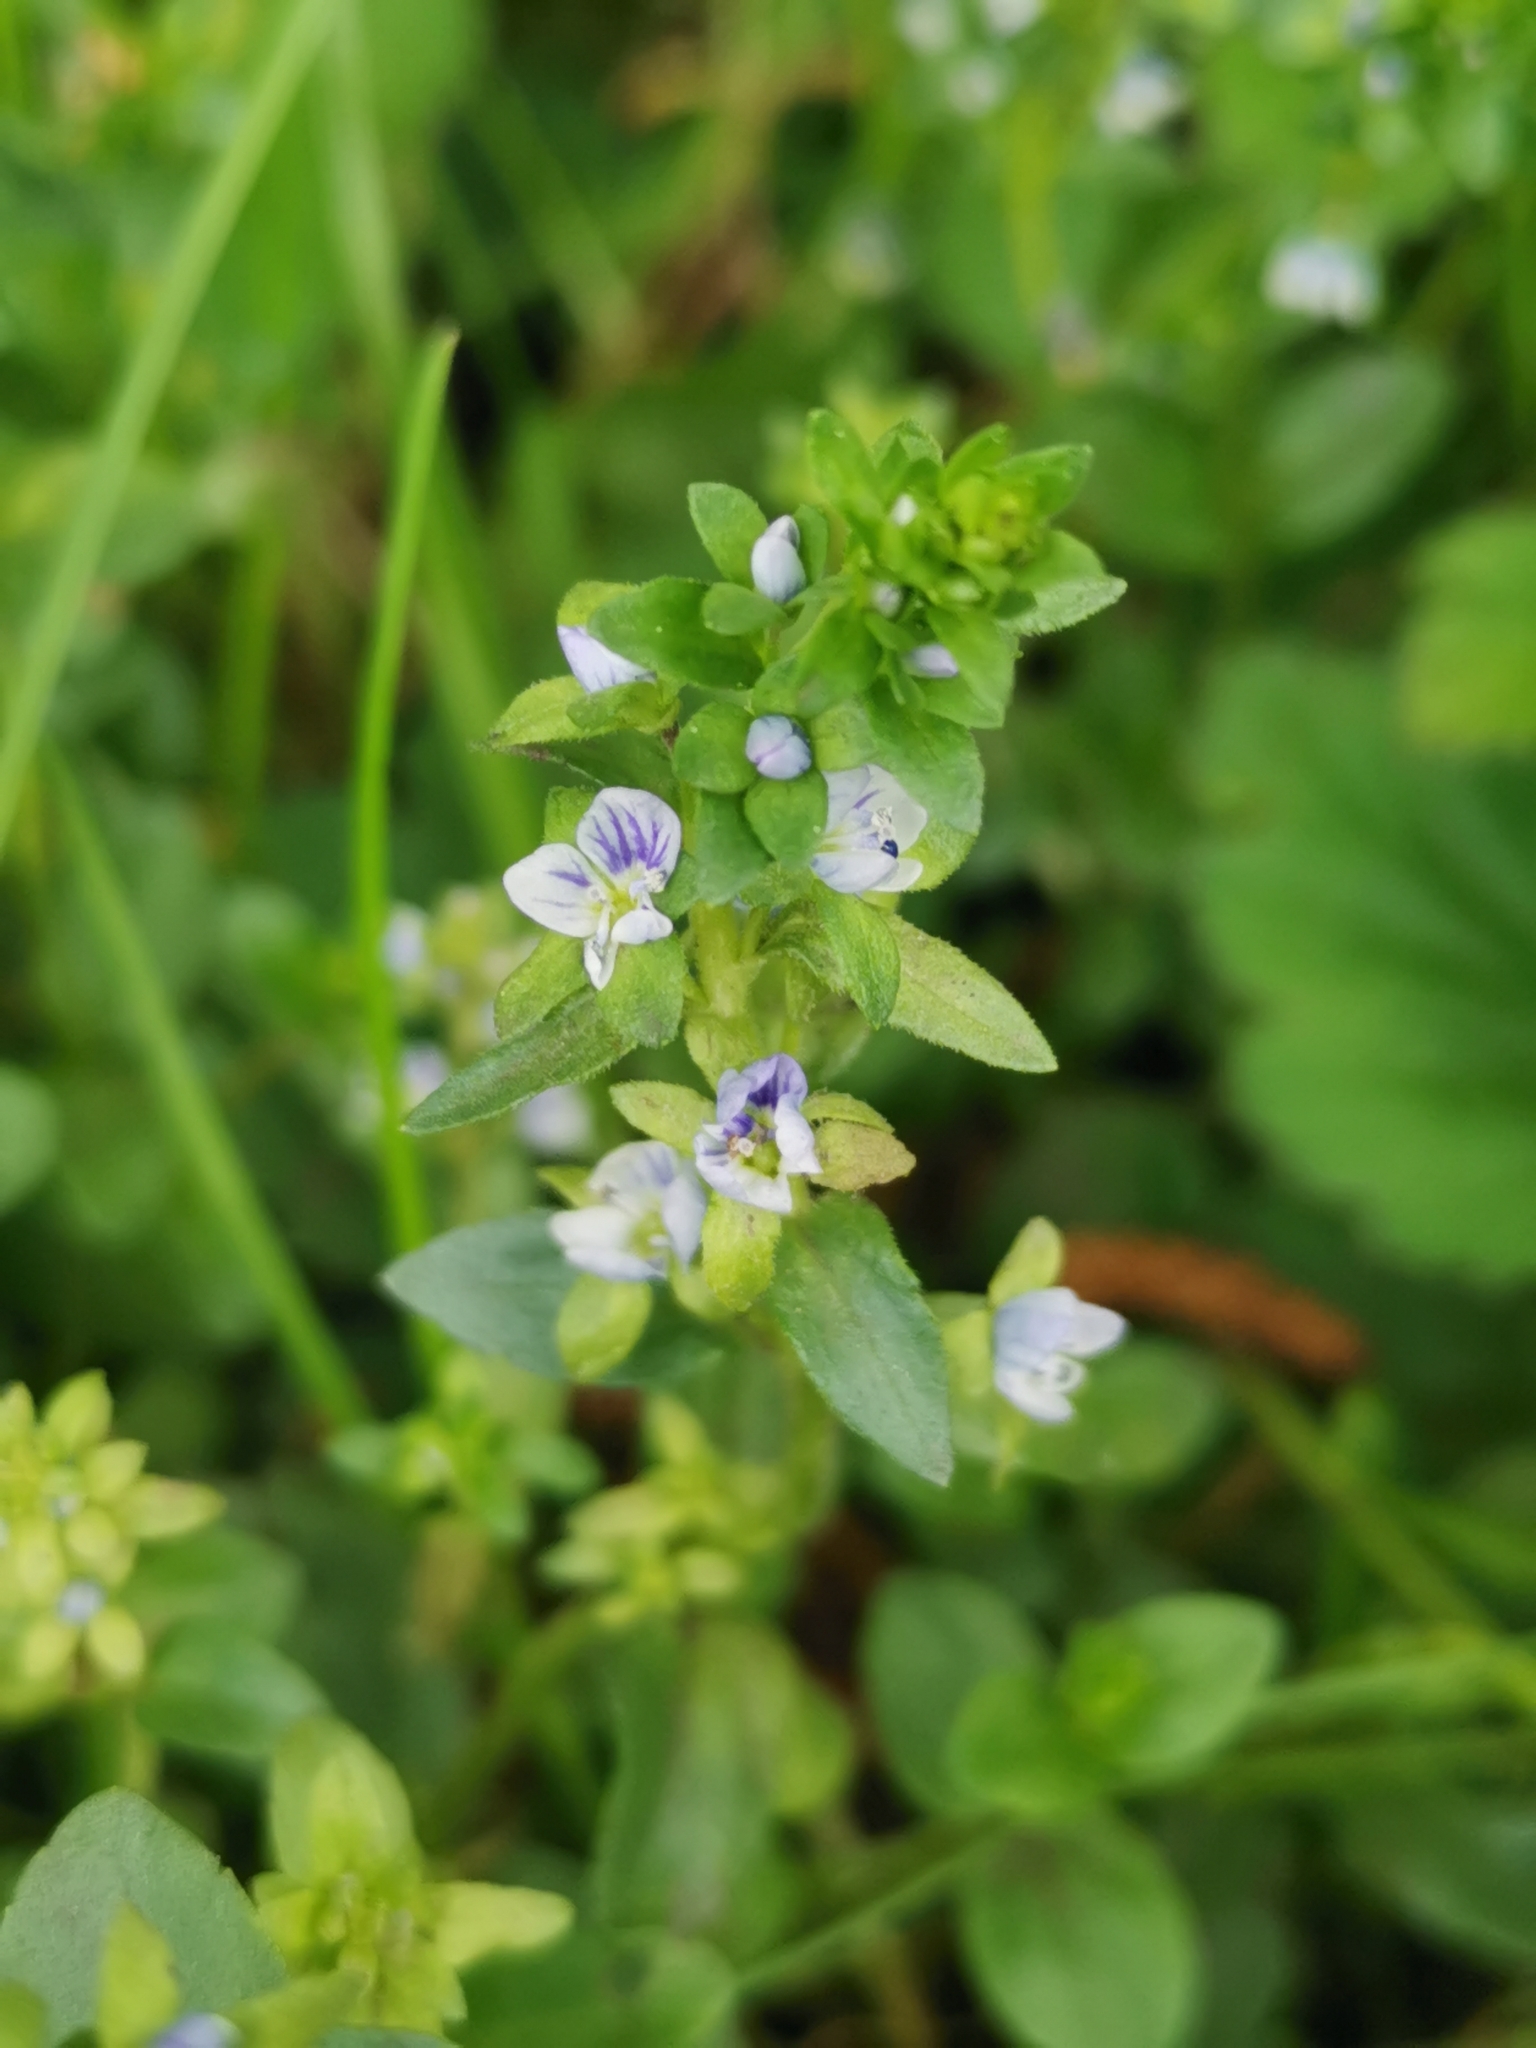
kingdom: Plantae
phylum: Tracheophyta
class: Magnoliopsida
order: Lamiales
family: Plantaginaceae
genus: Veronica
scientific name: Veronica serpyllifolia
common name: Thyme-leaved speedwell
